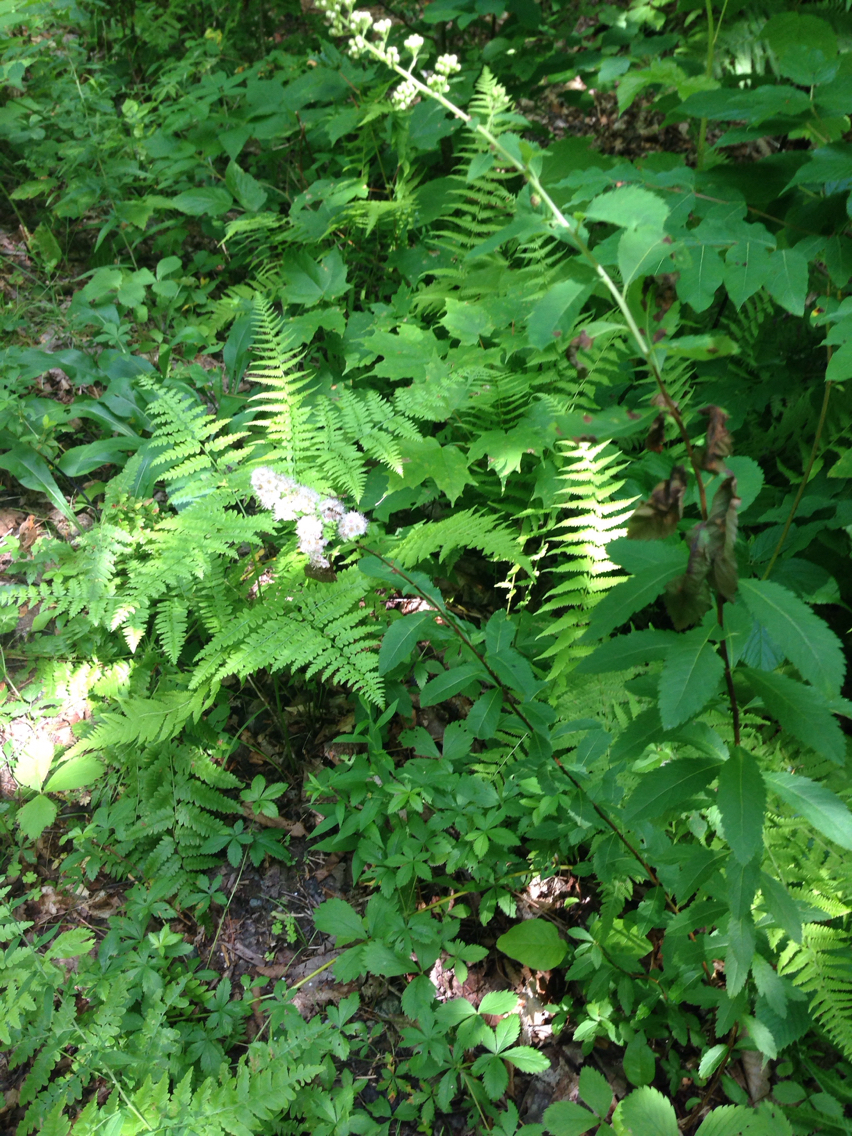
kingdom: Plantae
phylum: Tracheophyta
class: Magnoliopsida
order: Rosales
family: Rosaceae
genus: Spiraea
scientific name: Spiraea alba
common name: Pale bridewort
